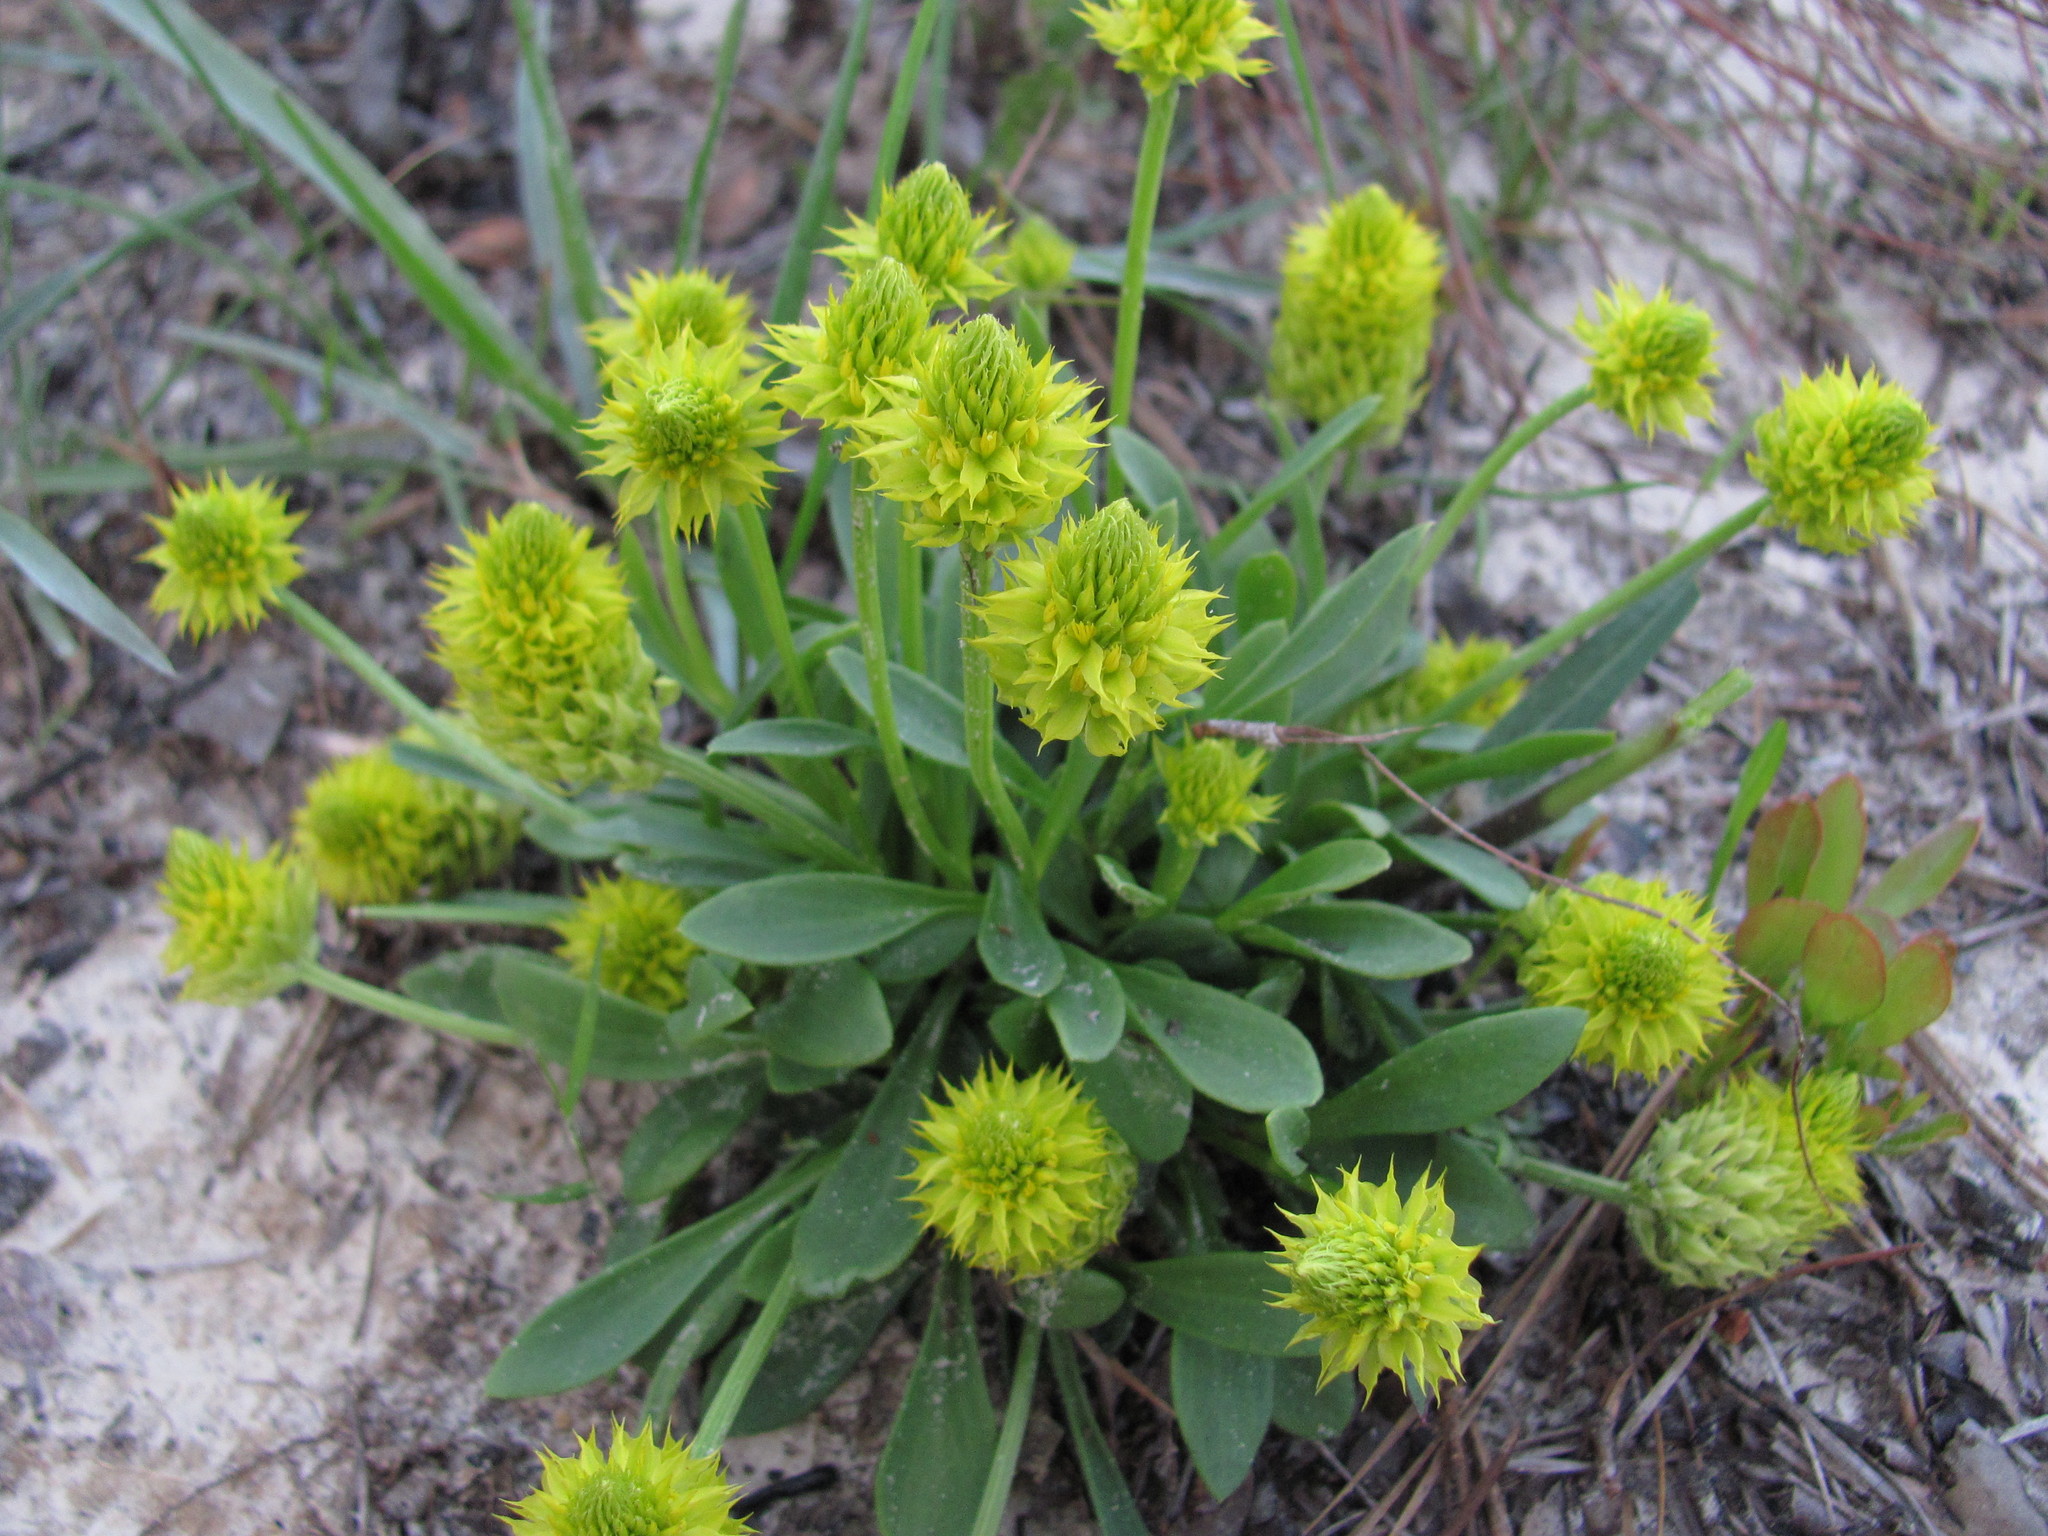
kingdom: Plantae
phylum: Tracheophyta
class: Magnoliopsida
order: Fabales
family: Polygalaceae
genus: Polygala
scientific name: Polygala nana
